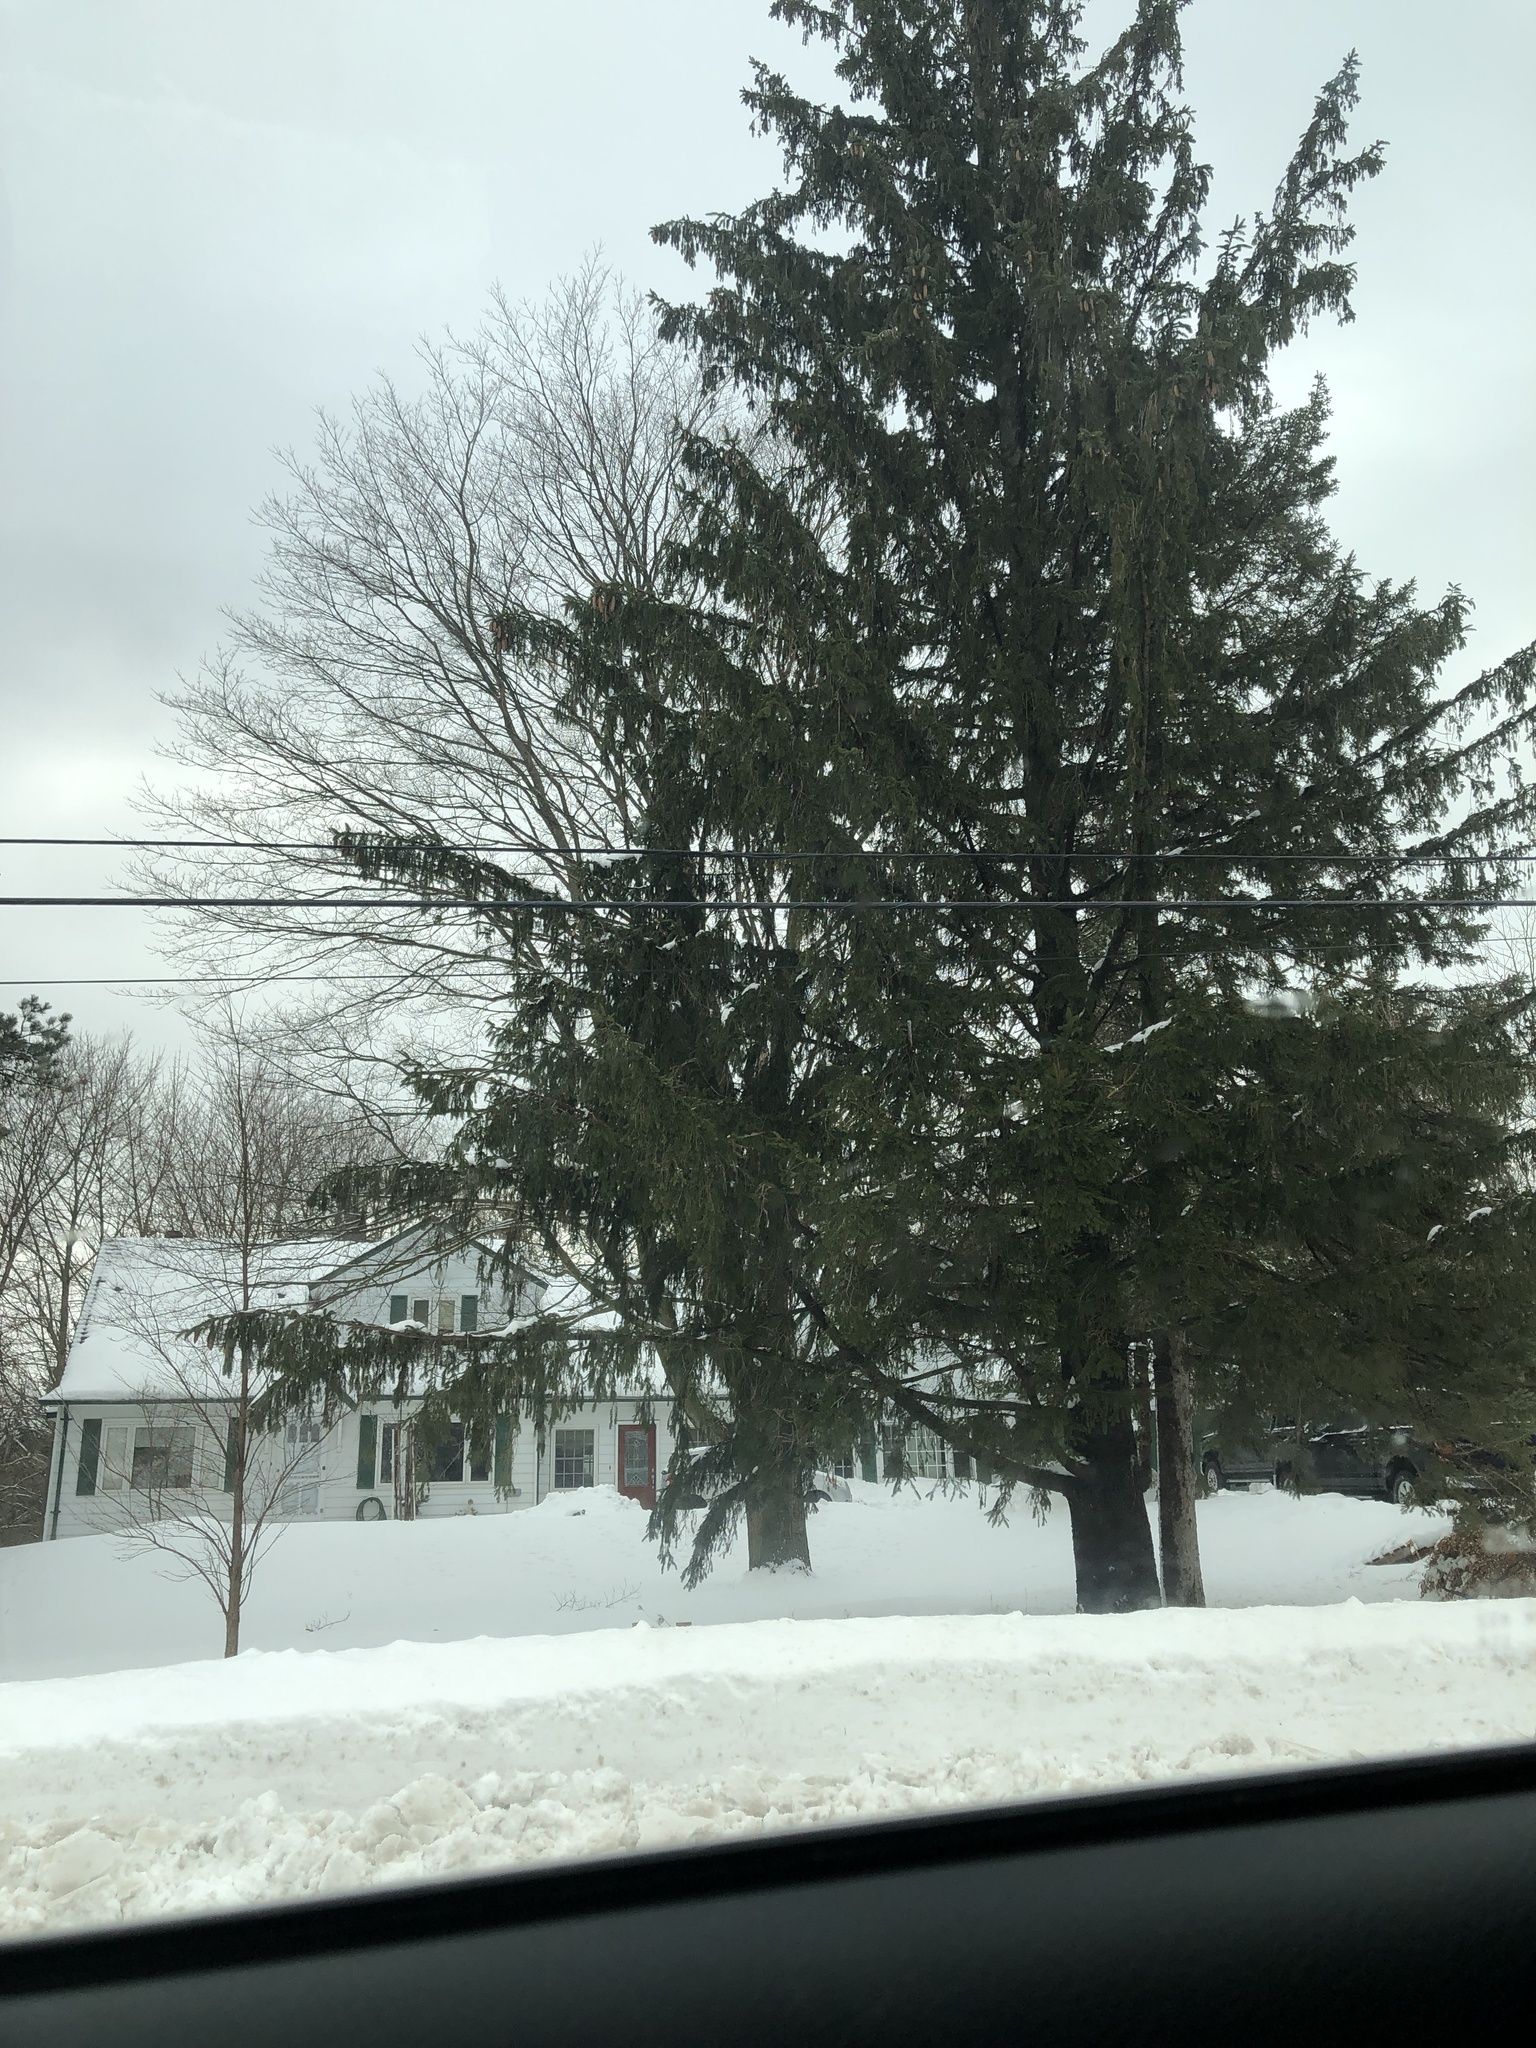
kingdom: Plantae
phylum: Tracheophyta
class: Pinopsida
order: Pinales
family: Pinaceae
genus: Picea
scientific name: Picea abies
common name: Norway spruce
